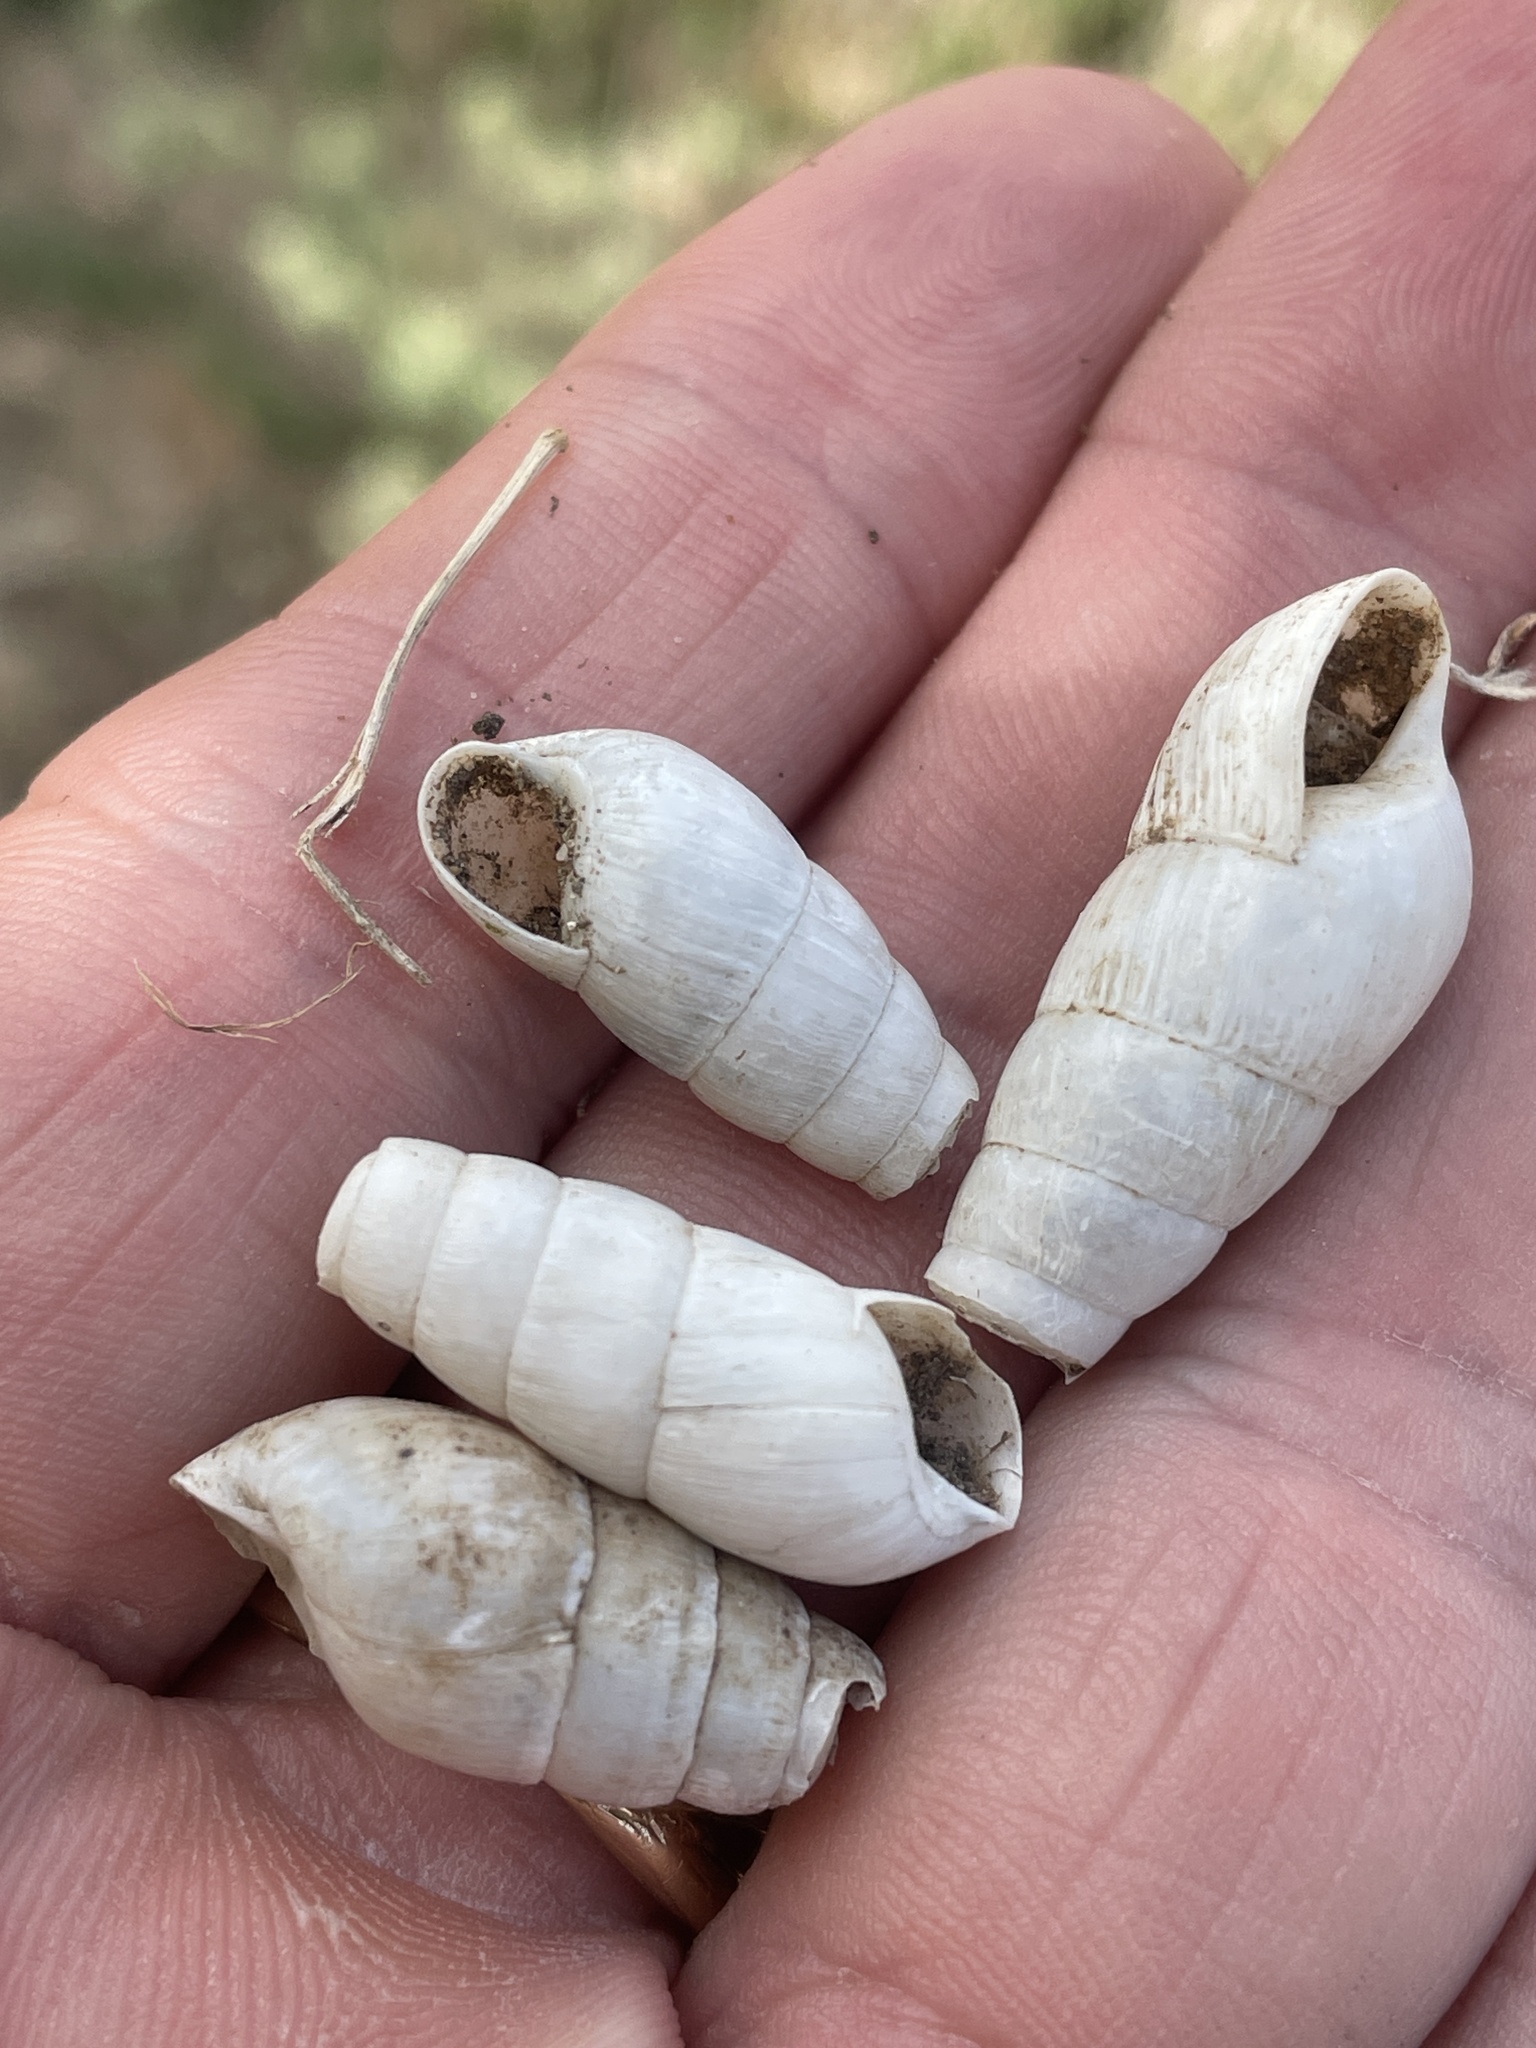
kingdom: Animalia
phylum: Mollusca
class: Gastropoda
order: Stylommatophora
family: Achatinidae
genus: Rumina
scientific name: Rumina decollata
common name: Decollate snail
